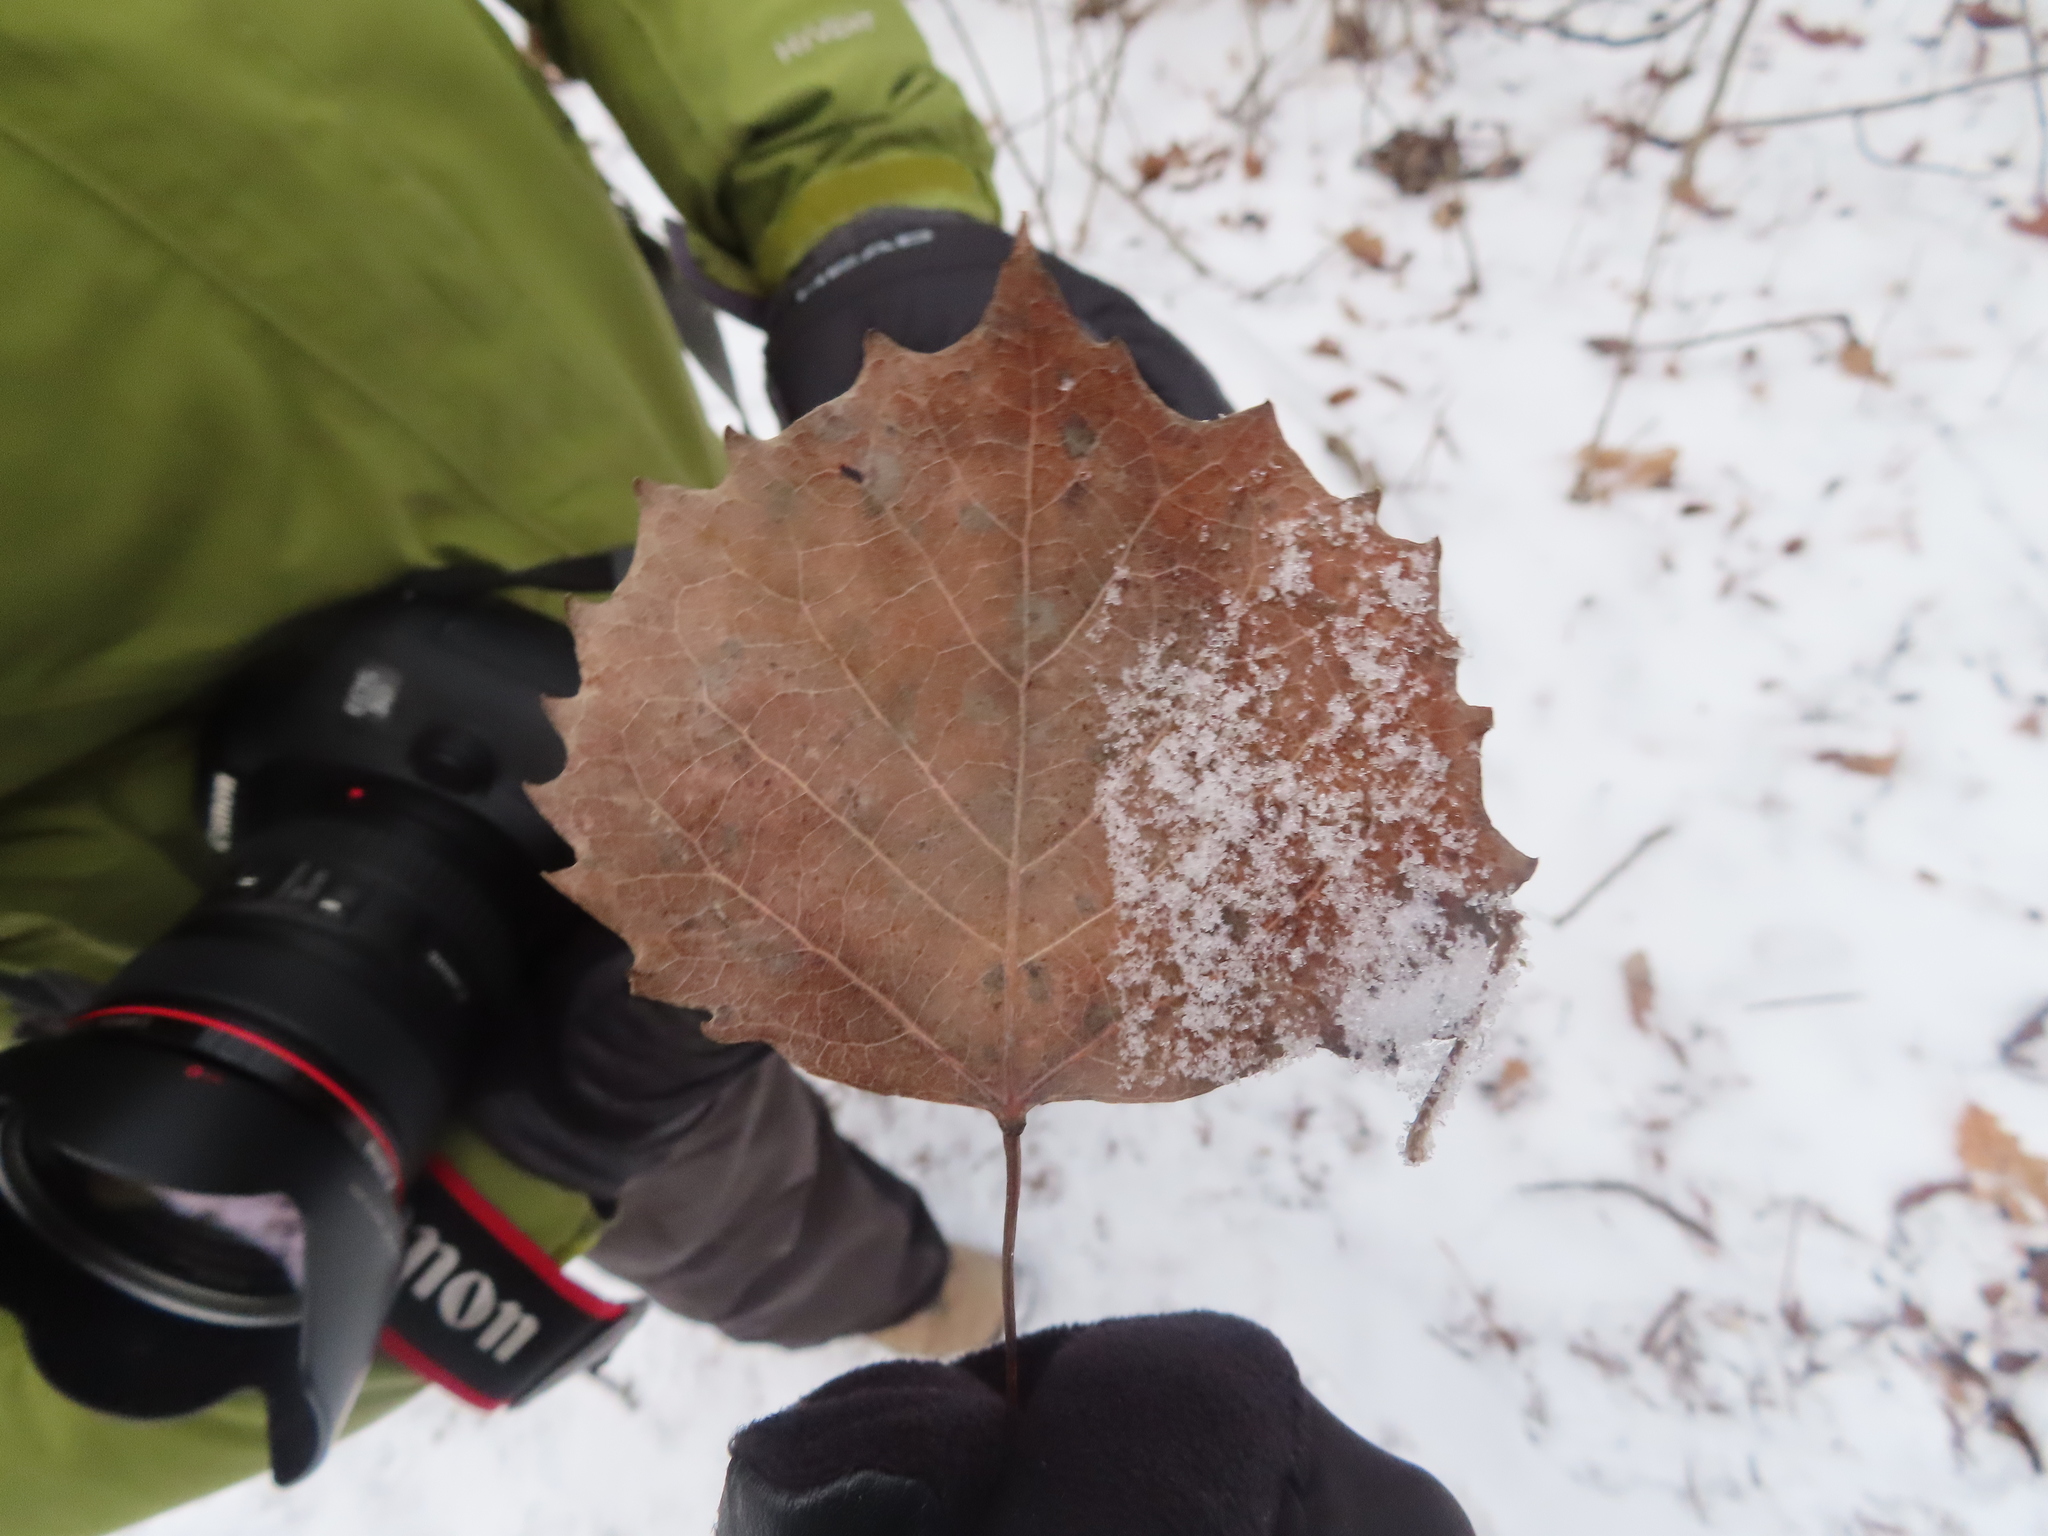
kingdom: Plantae
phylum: Tracheophyta
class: Magnoliopsida
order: Malpighiales
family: Salicaceae
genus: Populus
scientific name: Populus grandidentata
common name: Bigtooth aspen
